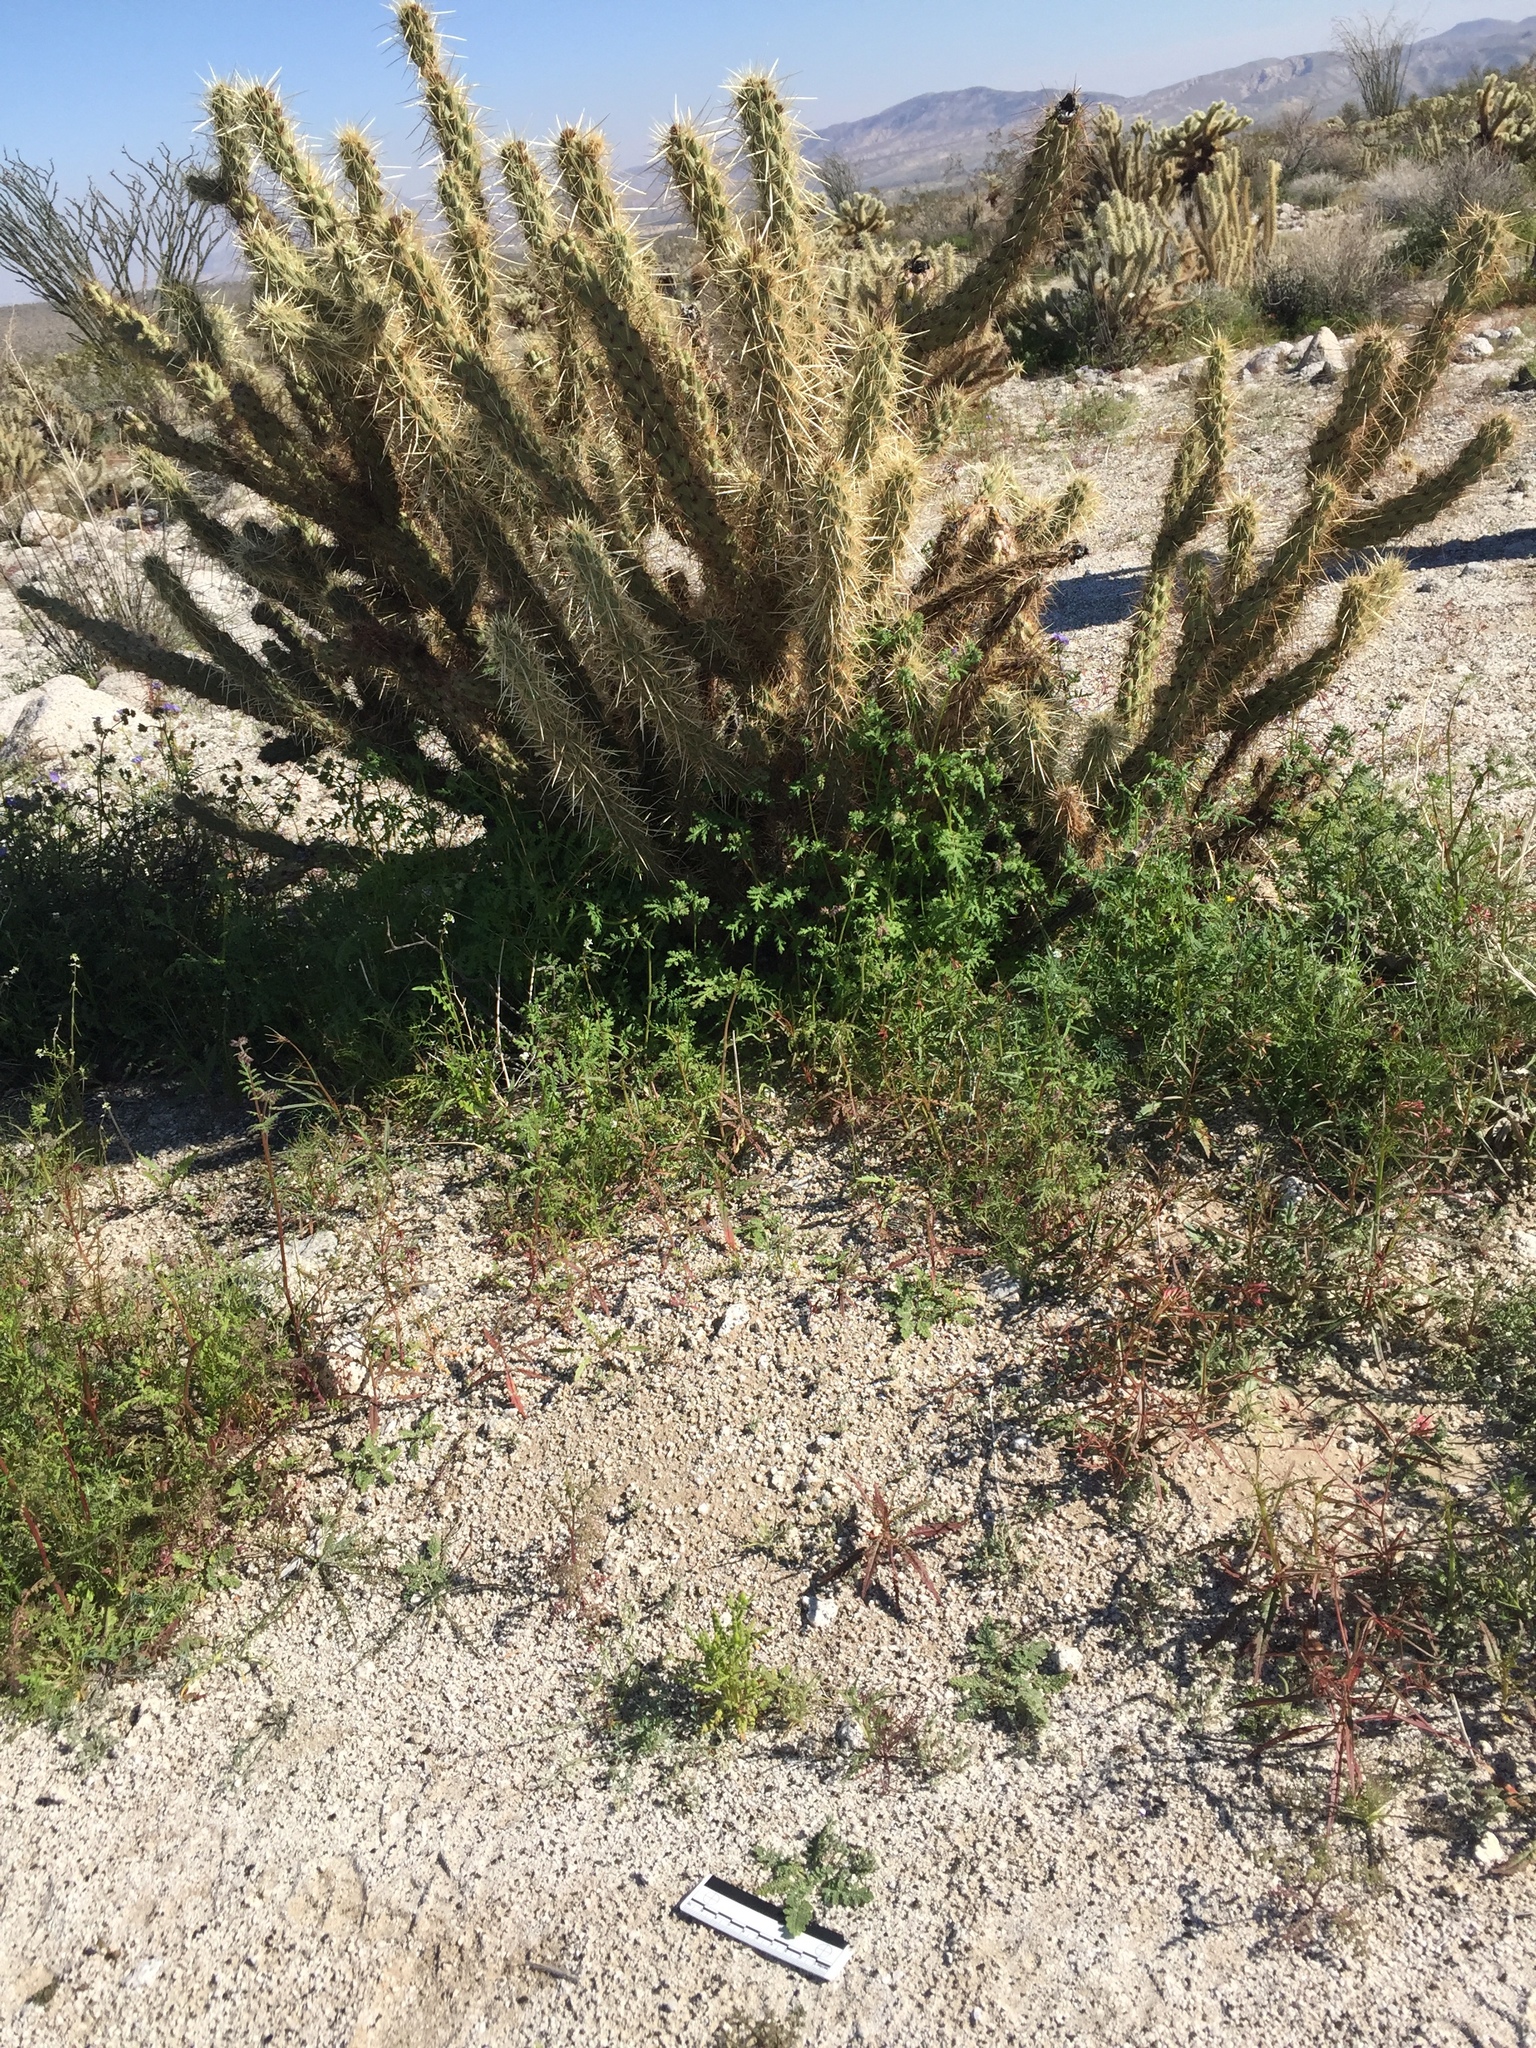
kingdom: Plantae
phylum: Tracheophyta
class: Magnoliopsida
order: Lamiales
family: Lamiaceae
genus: Salvia
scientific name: Salvia columbariae
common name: Chia
